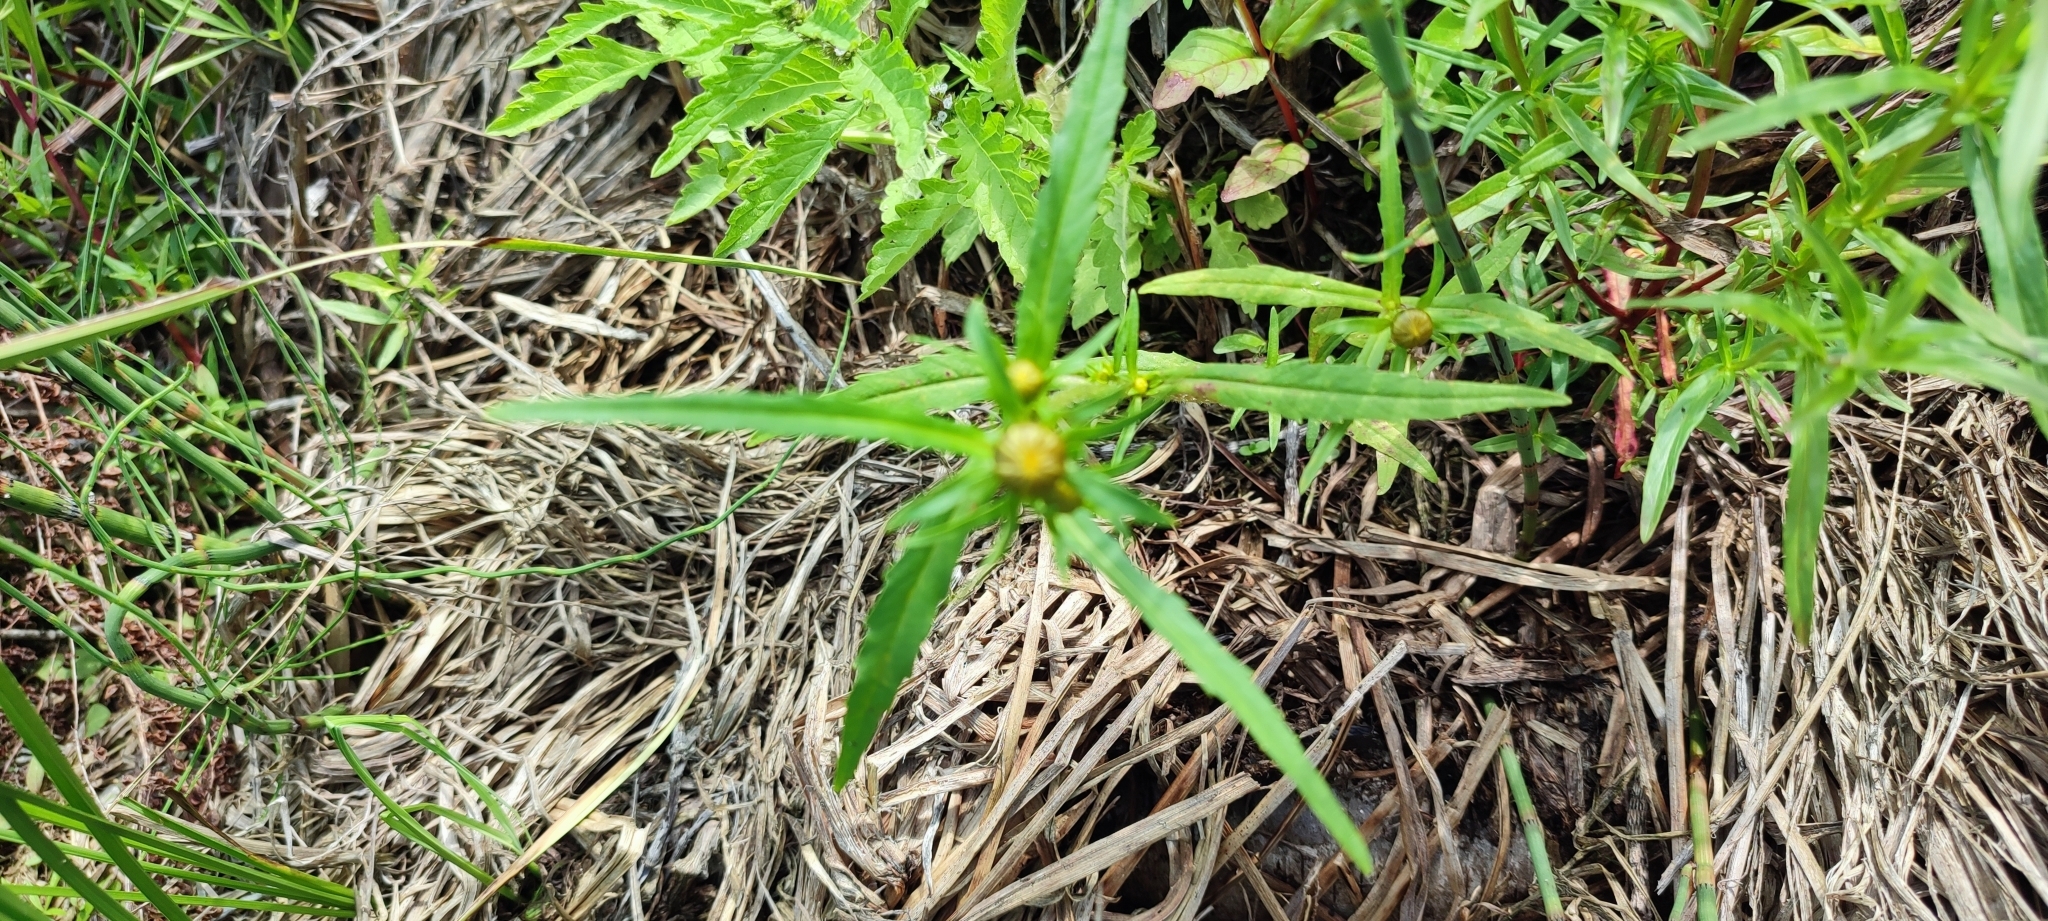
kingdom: Plantae
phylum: Tracheophyta
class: Magnoliopsida
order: Asterales
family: Asteraceae
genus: Bidens
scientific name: Bidens cernua
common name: Nodding bur-marigold
